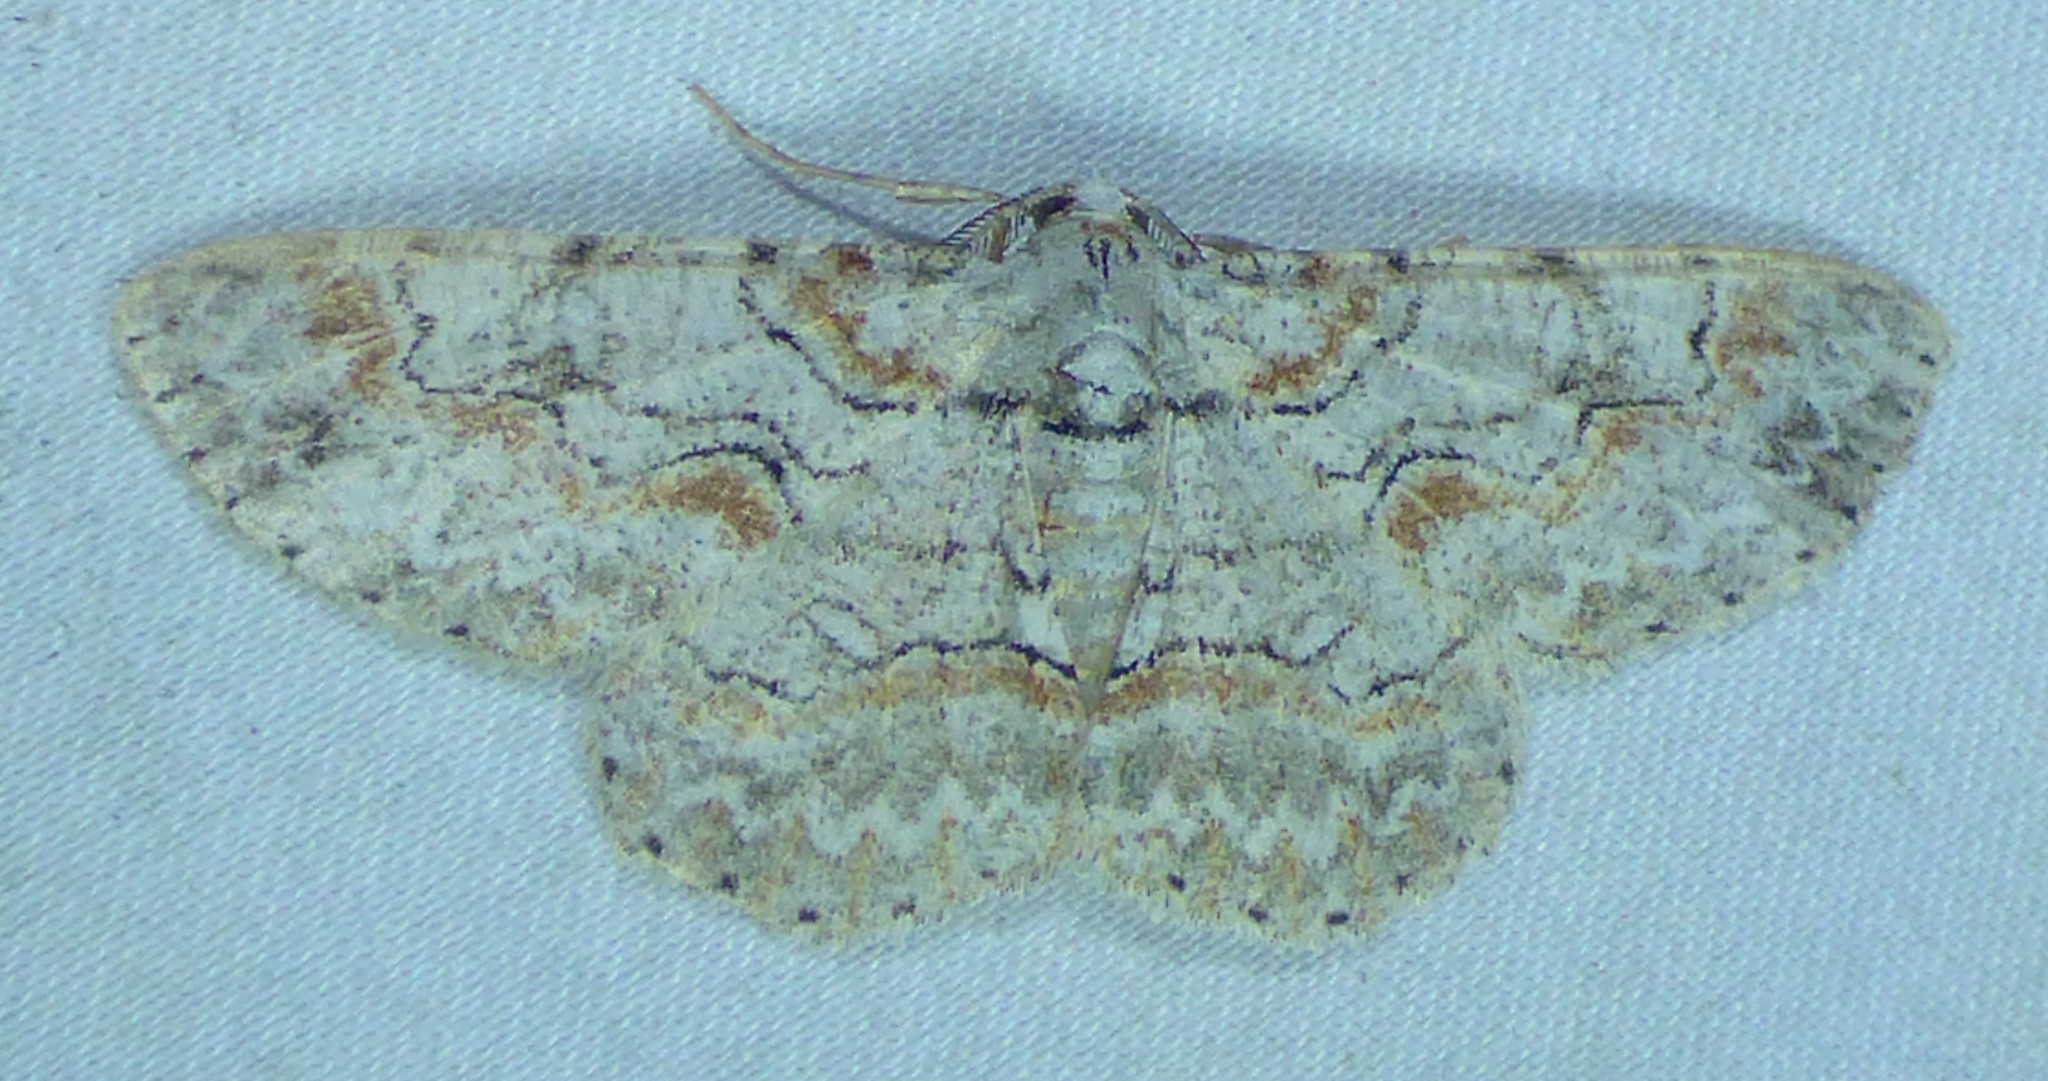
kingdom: Animalia
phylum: Arthropoda
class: Insecta
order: Lepidoptera
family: Geometridae
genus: Iridopsis
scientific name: Iridopsis defectaria
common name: Brown-shaded gray
